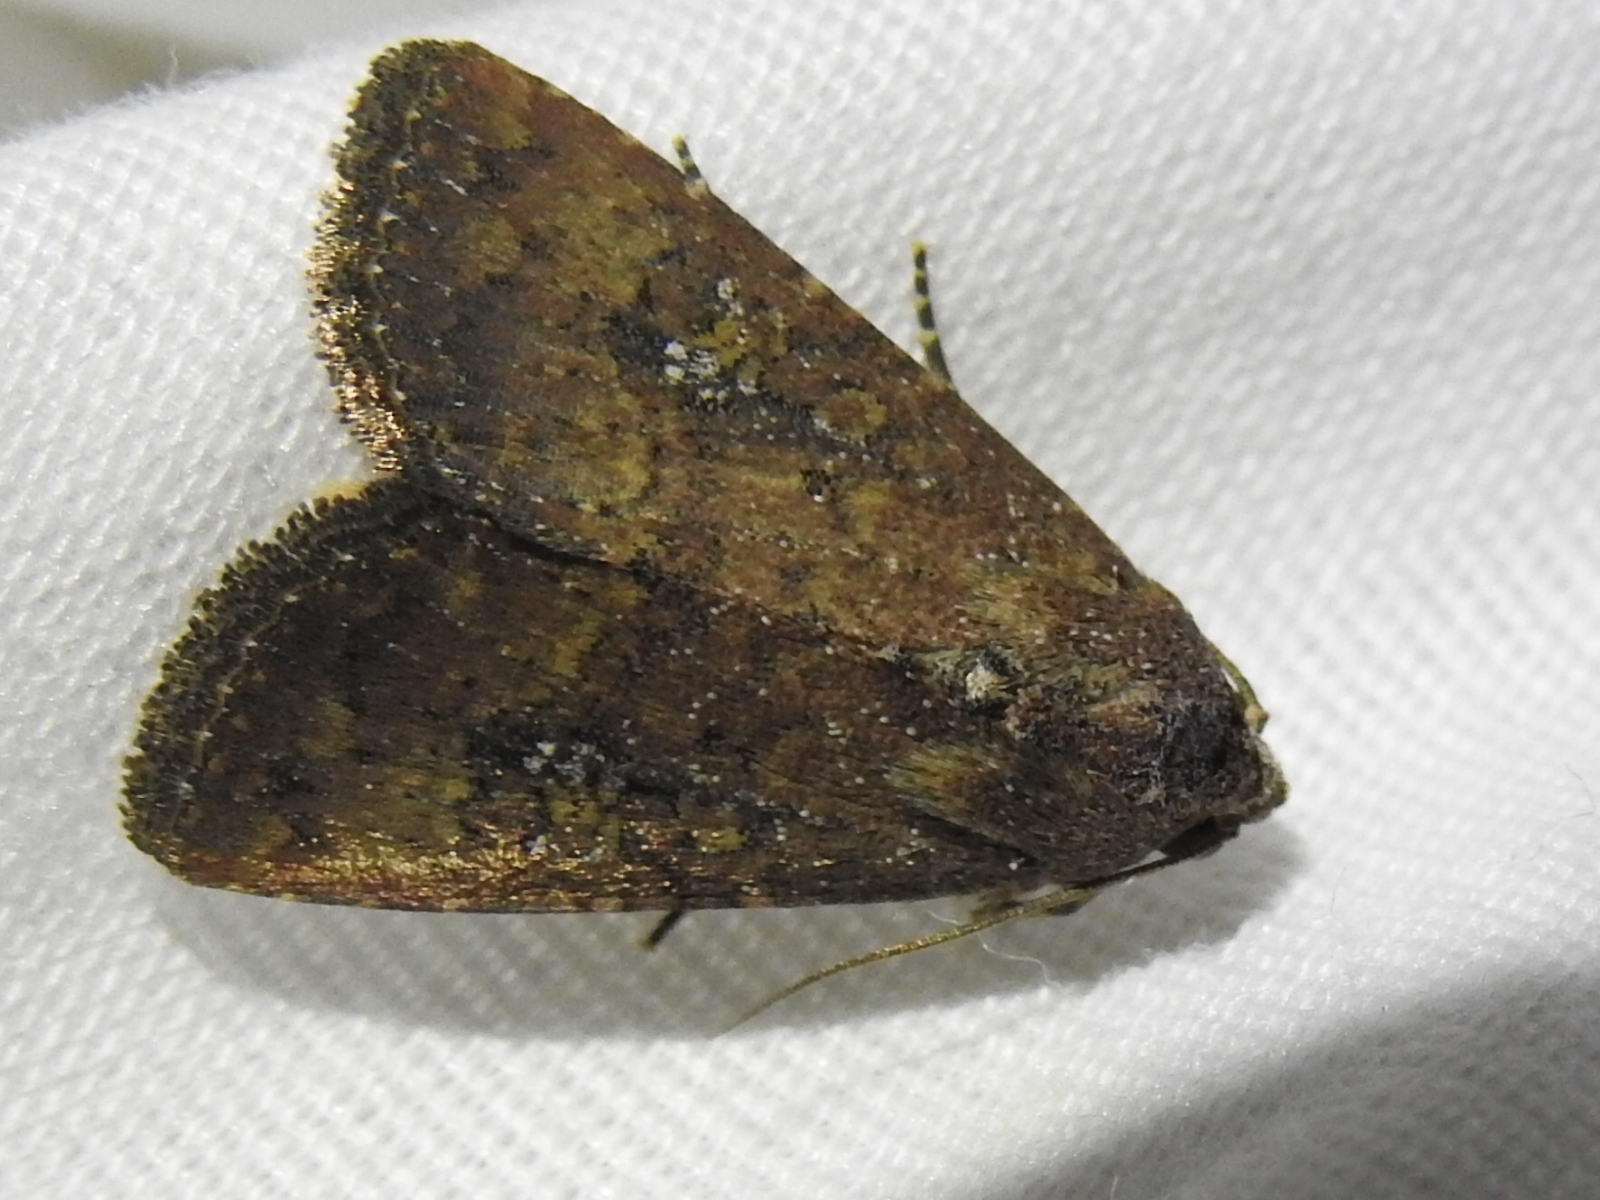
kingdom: Animalia
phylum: Arthropoda
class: Insecta
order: Lepidoptera
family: Noctuidae
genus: Condica
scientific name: Condica sutor
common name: Cobbler moth
